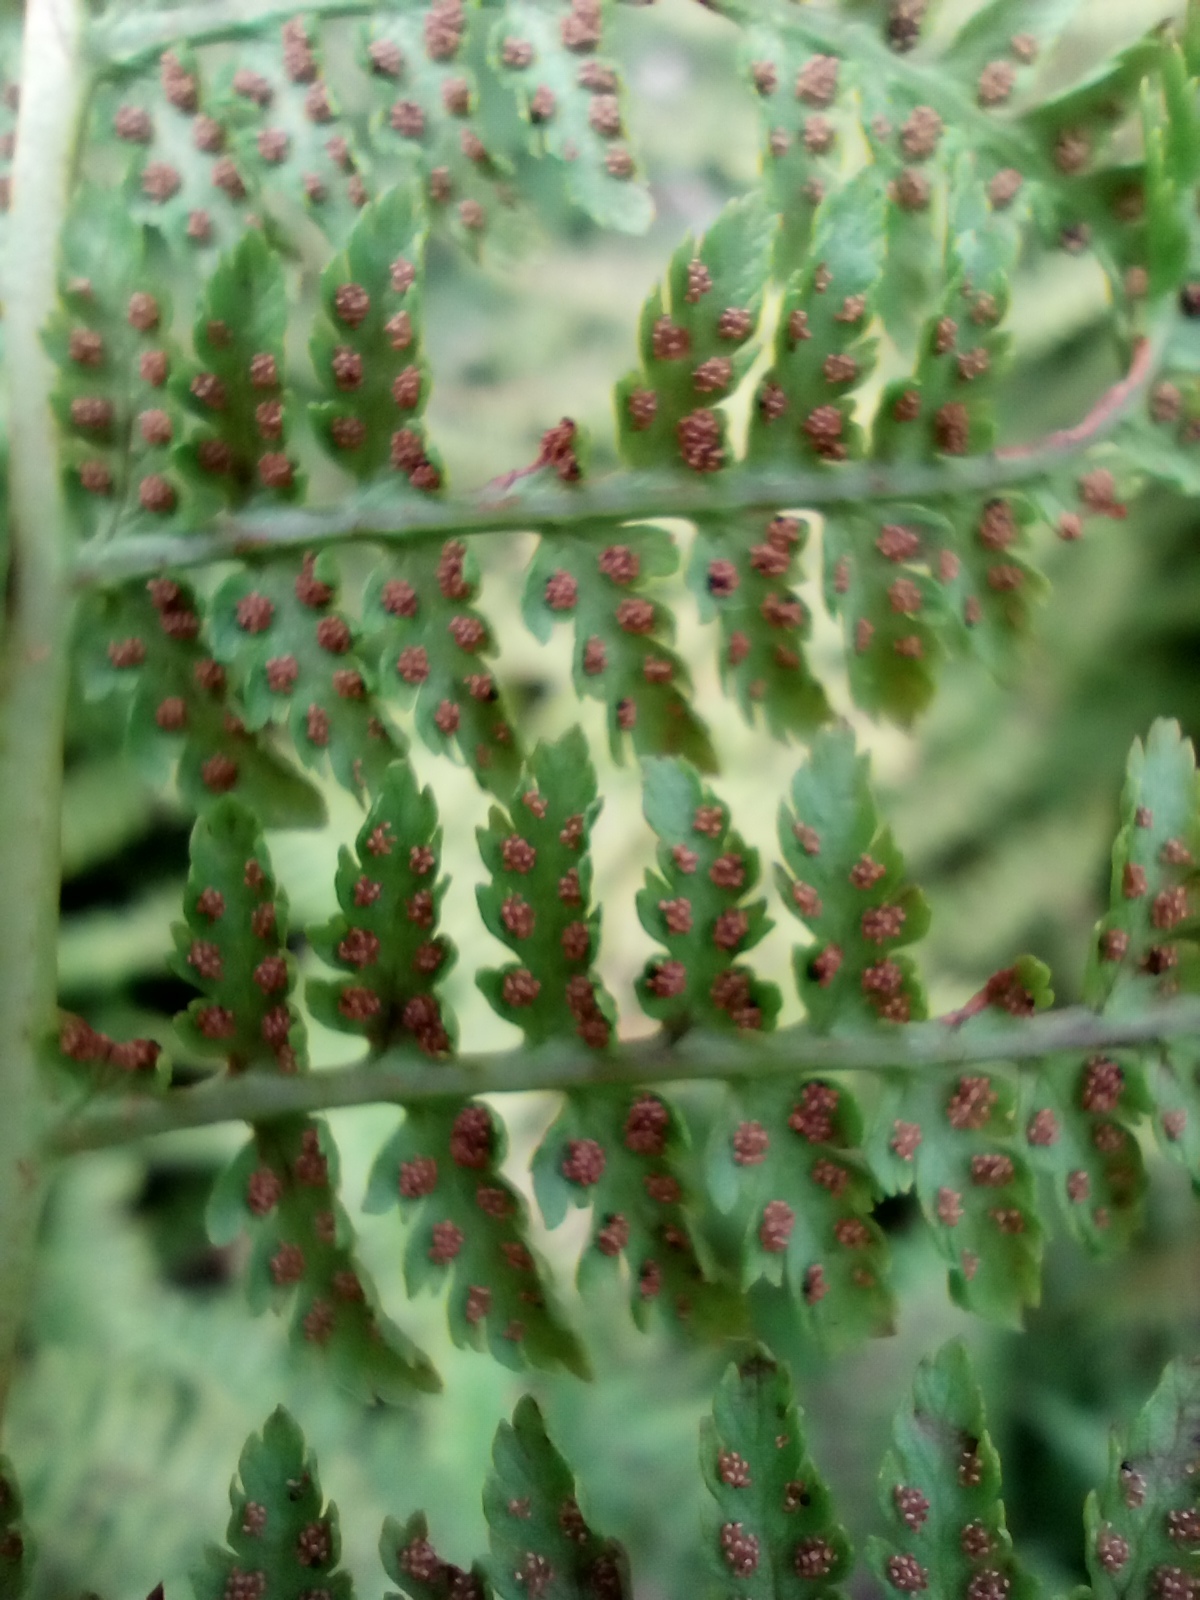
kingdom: Plantae
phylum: Tracheophyta
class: Polypodiopsida
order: Polypodiales
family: Athyriaceae
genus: Pseudathyrium
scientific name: Pseudathyrium alpestre
